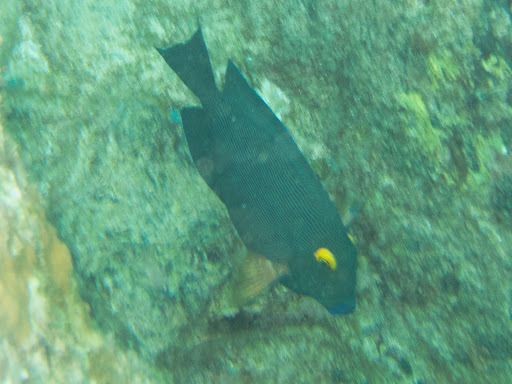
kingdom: Animalia
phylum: Chordata
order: Perciformes
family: Acanthuridae
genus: Ctenochaetus
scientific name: Ctenochaetus strigosus
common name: Bristletoothed surgeonfish
